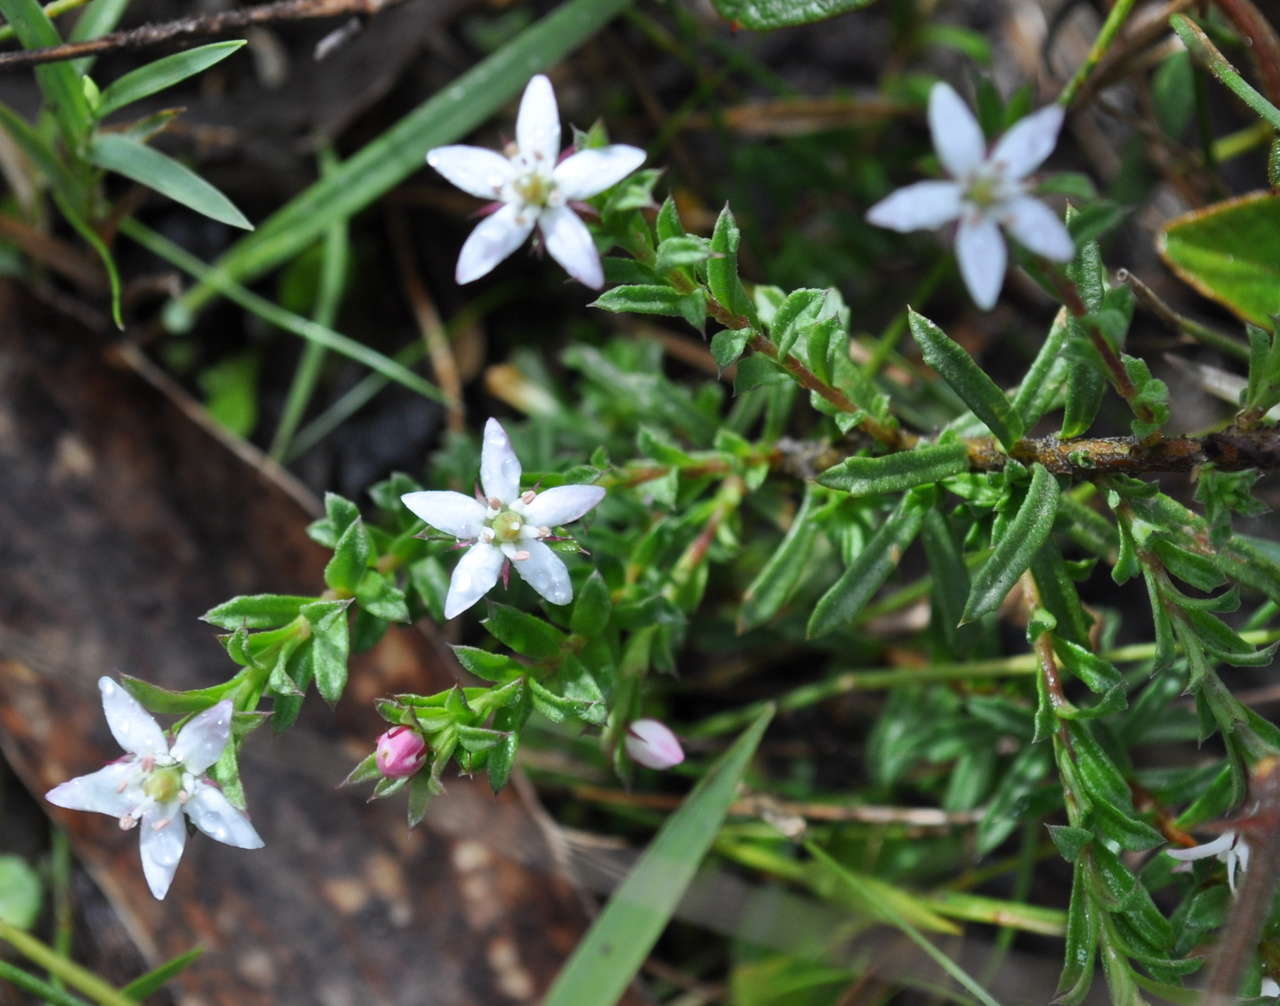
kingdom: Plantae
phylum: Tracheophyta
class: Magnoliopsida
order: Apiales
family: Pittosporaceae
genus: Rhytidosporum
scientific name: Rhytidosporum procumbens
